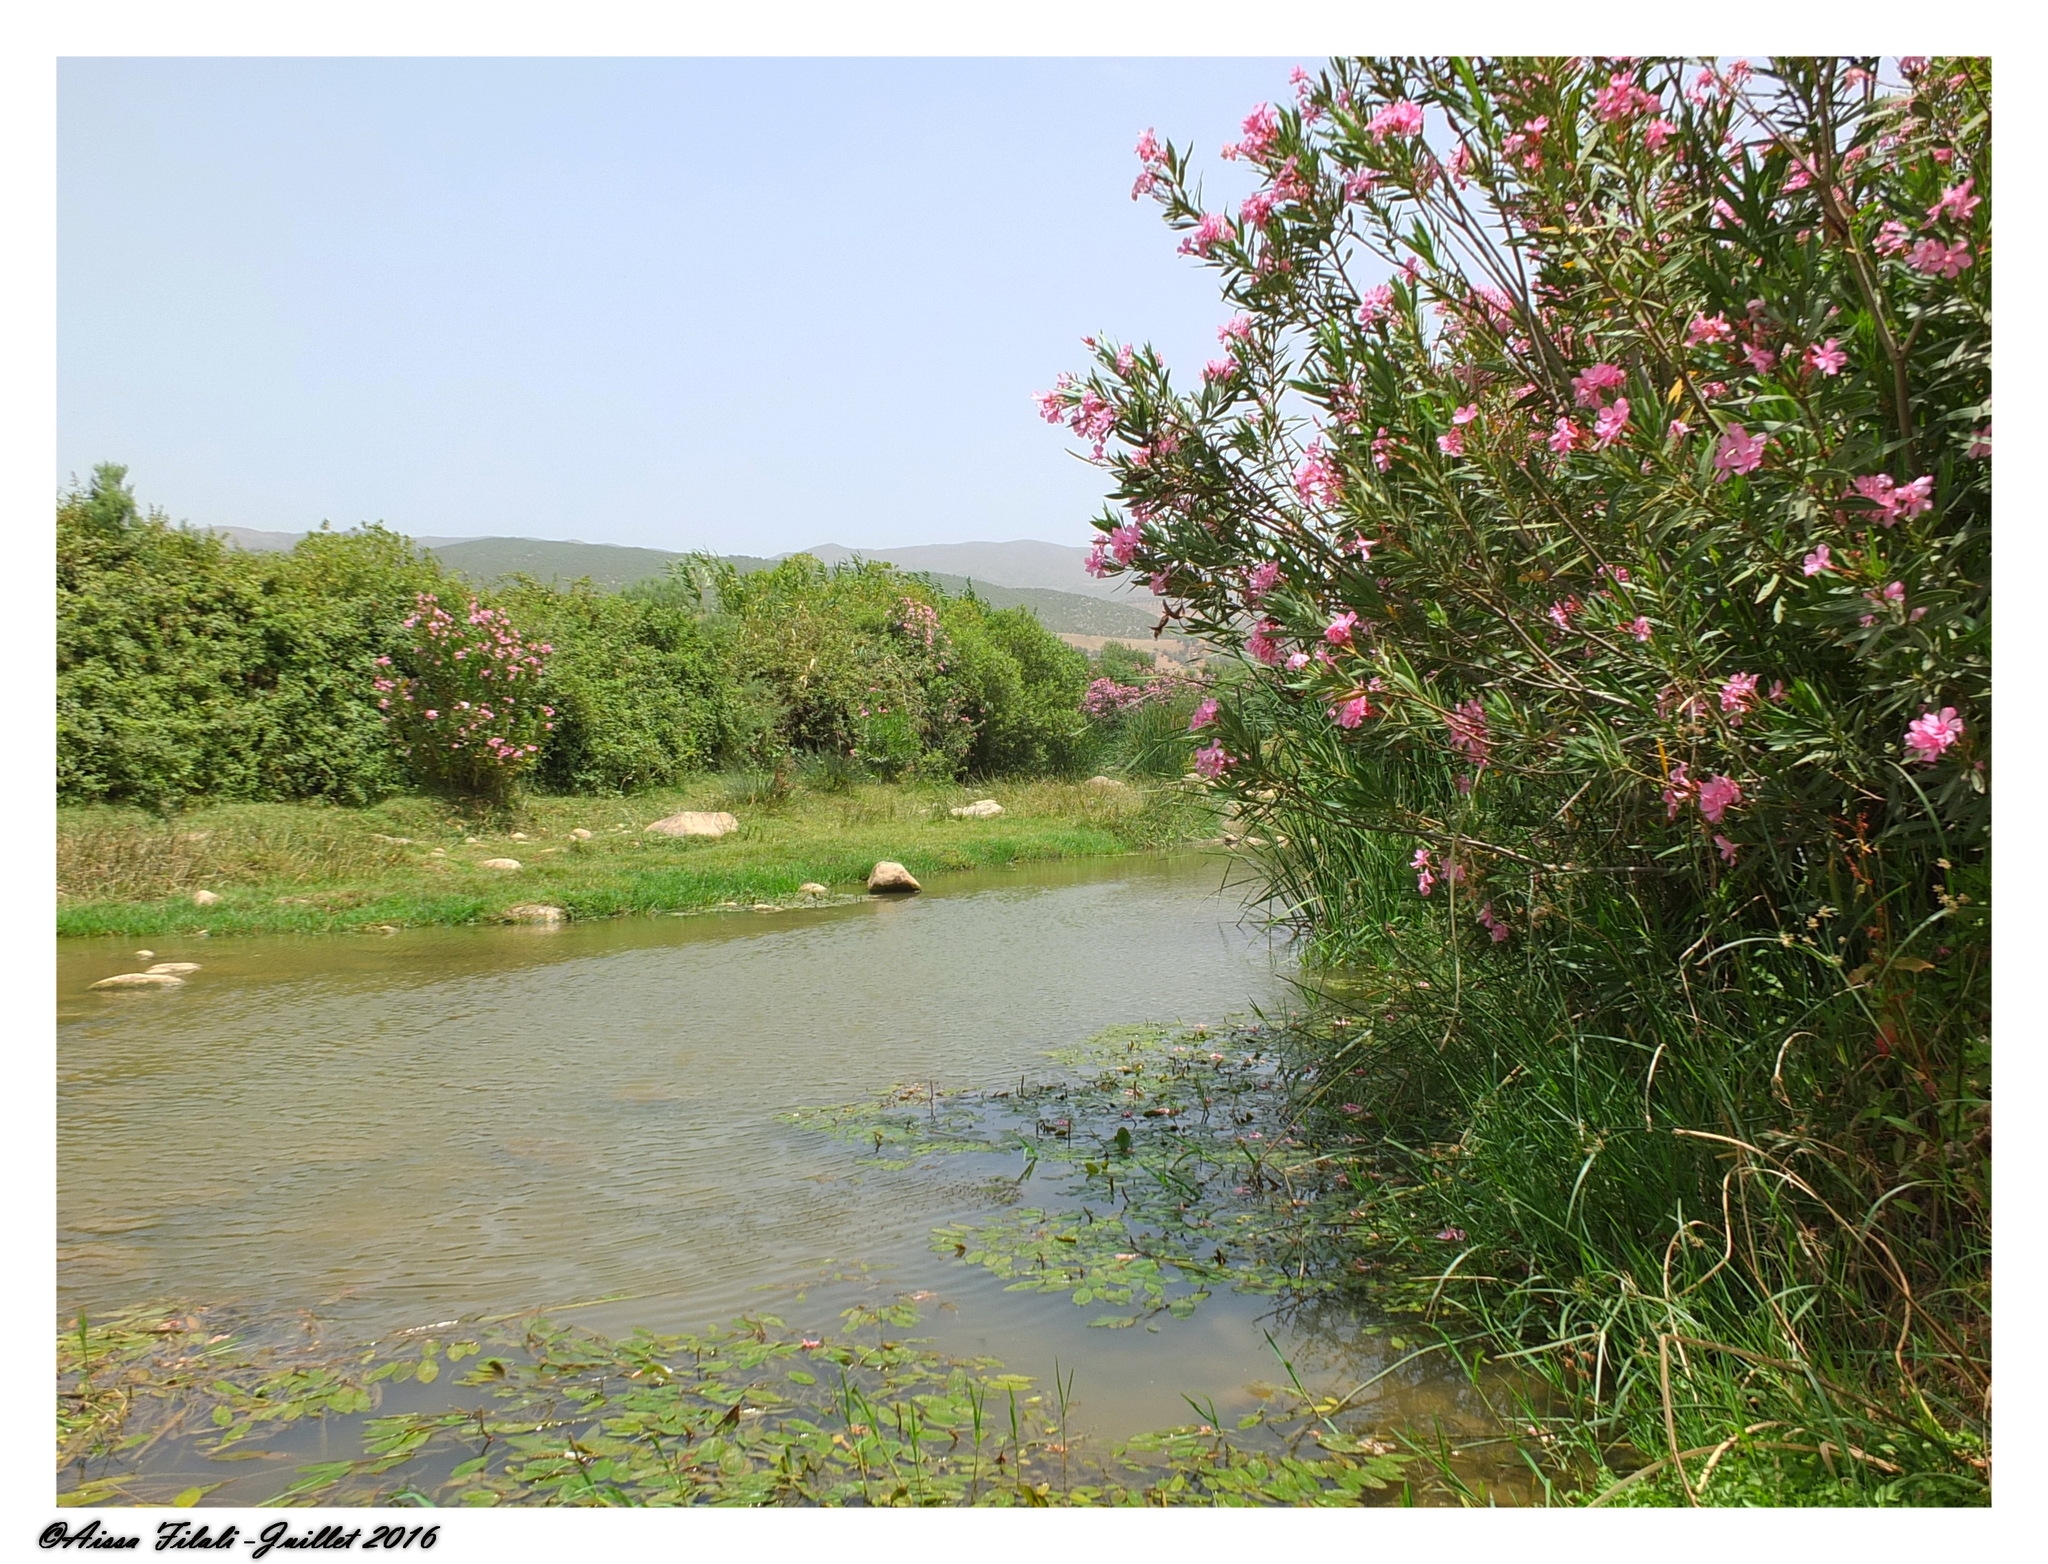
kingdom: Plantae
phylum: Tracheophyta
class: Magnoliopsida
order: Gentianales
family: Apocynaceae
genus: Nerium
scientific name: Nerium oleander
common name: Oleander
